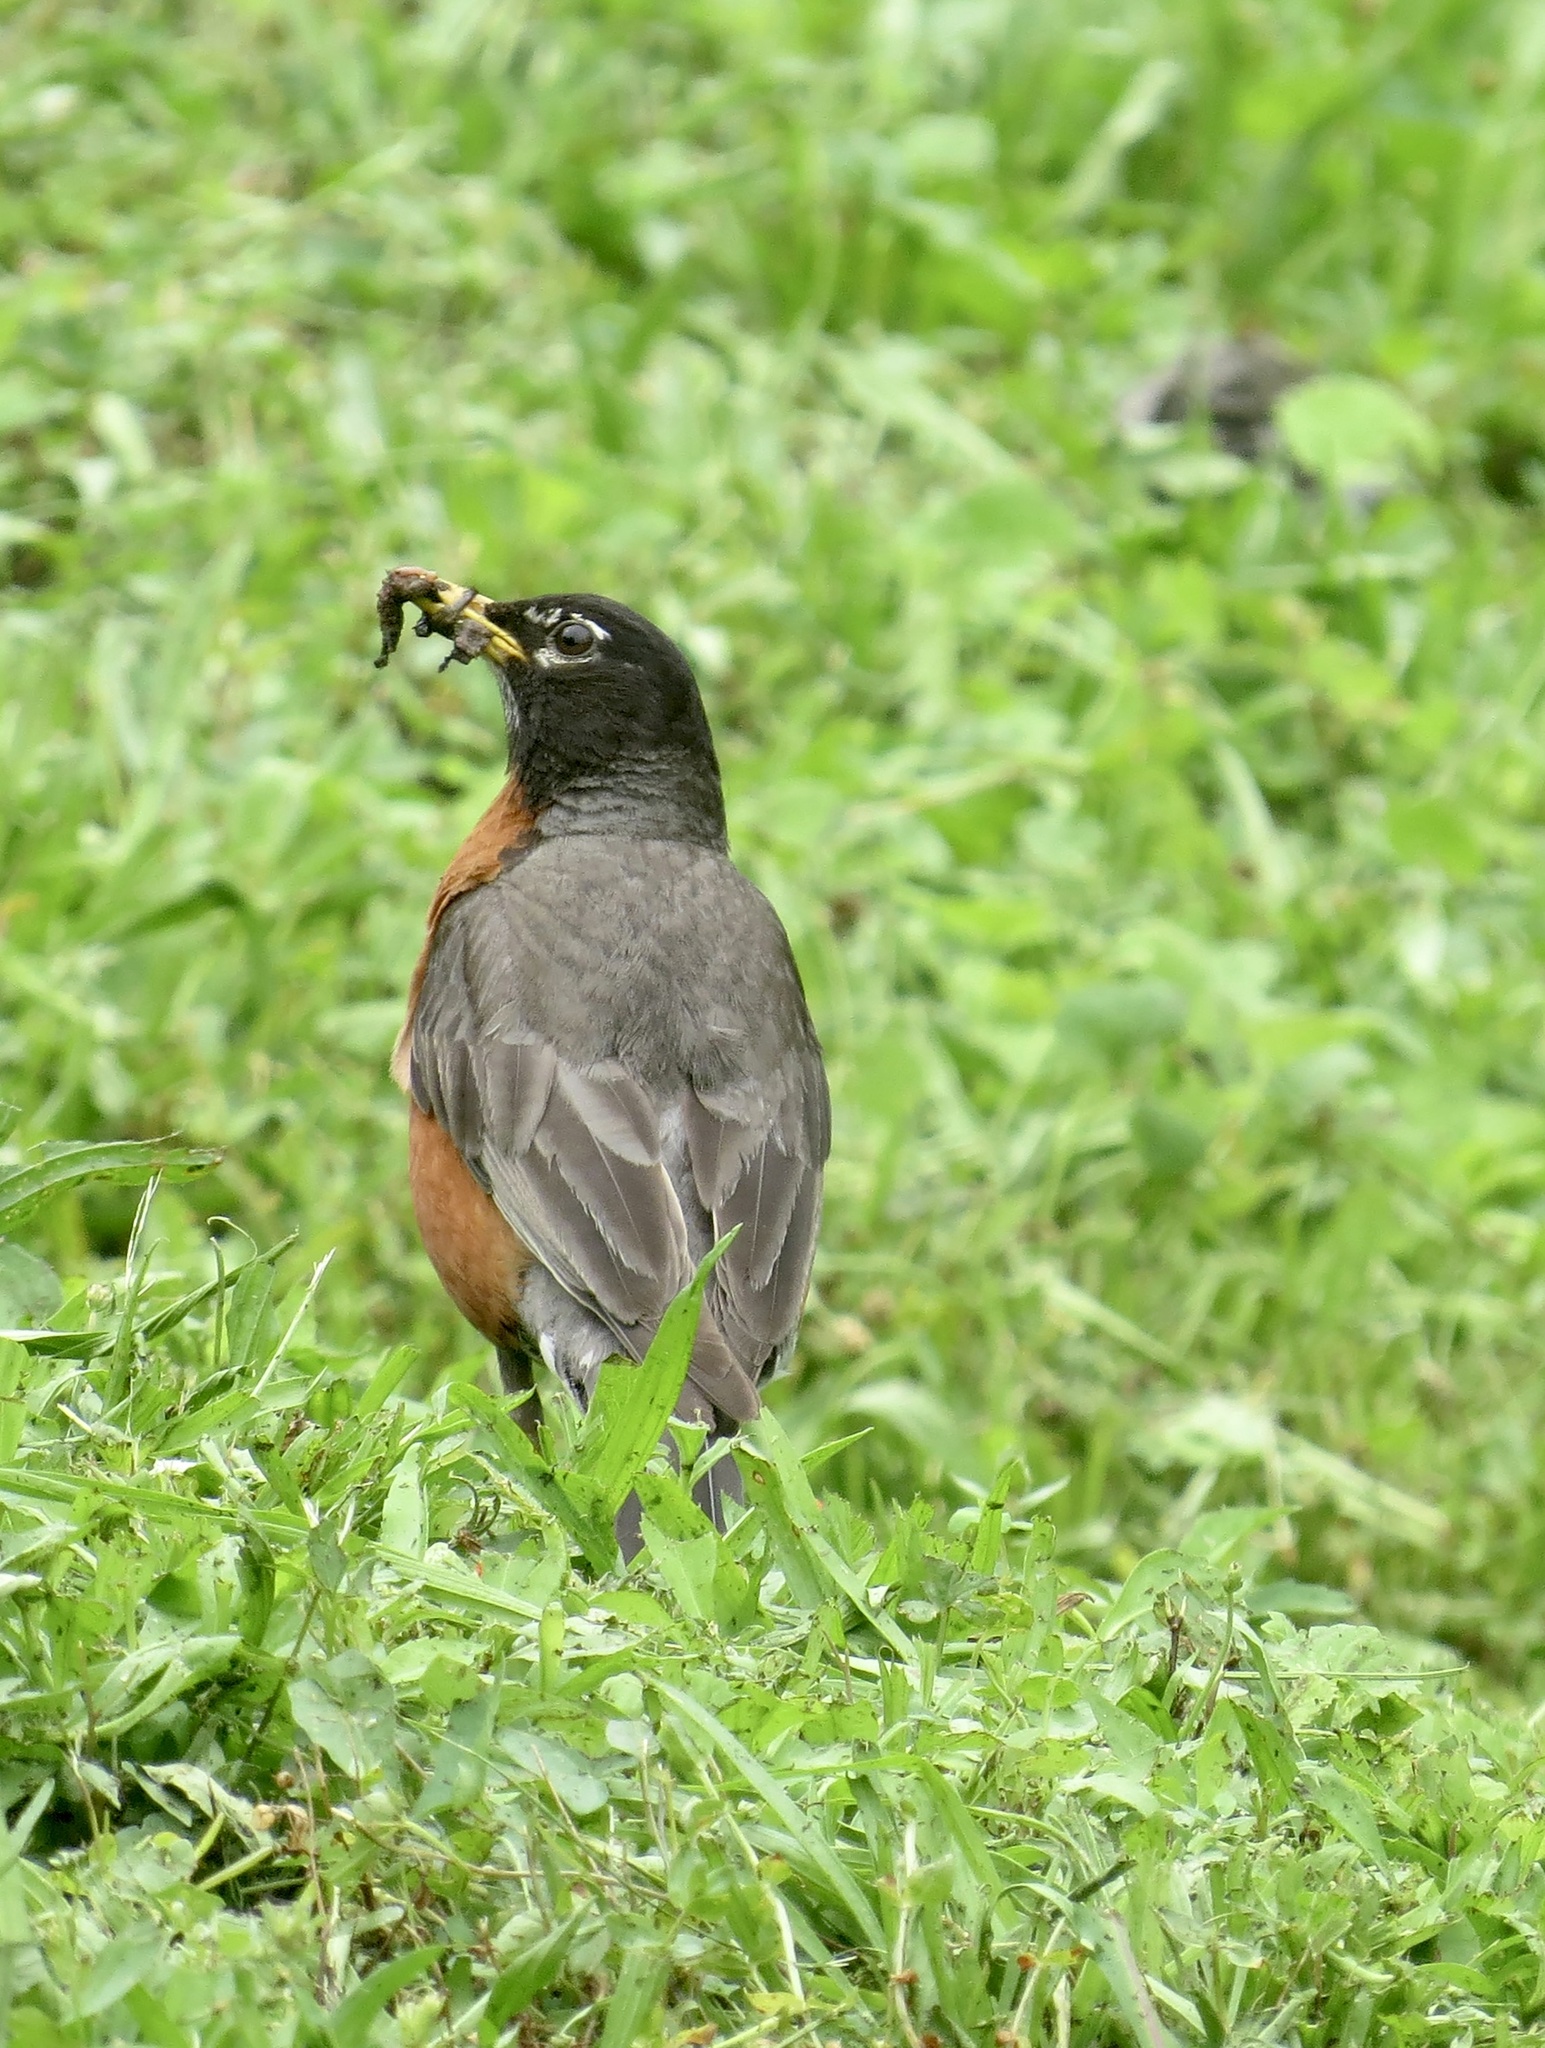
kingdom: Animalia
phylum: Chordata
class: Aves
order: Passeriformes
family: Turdidae
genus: Turdus
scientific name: Turdus migratorius
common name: American robin
